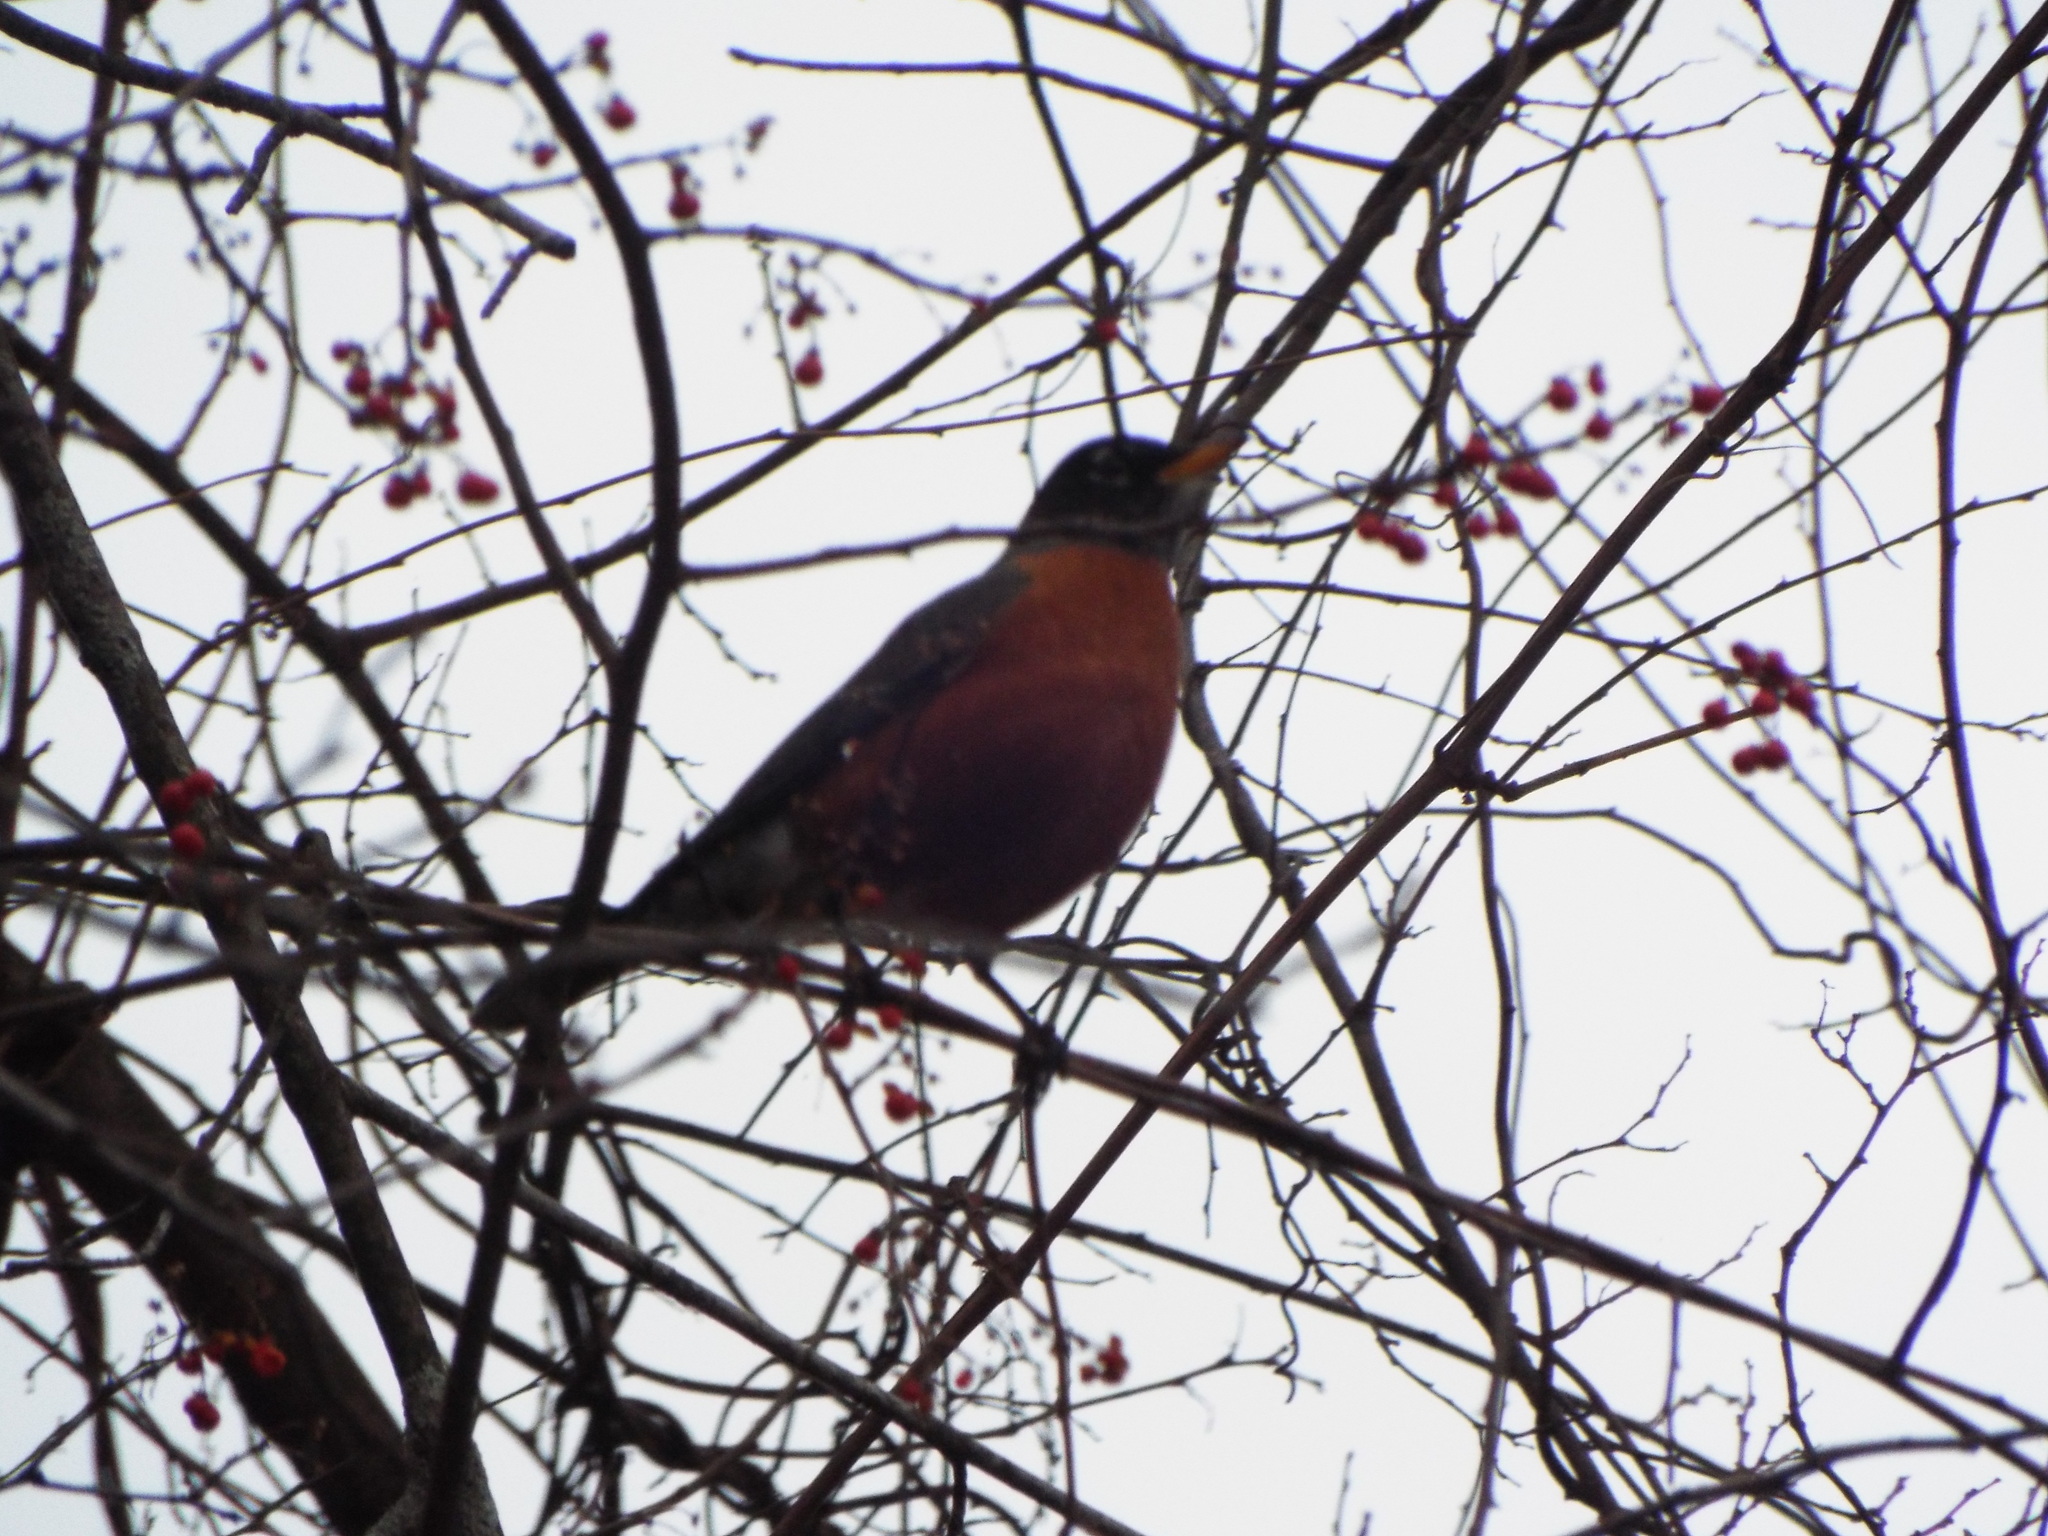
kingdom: Animalia
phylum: Chordata
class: Aves
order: Passeriformes
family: Turdidae
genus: Turdus
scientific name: Turdus migratorius
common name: American robin
